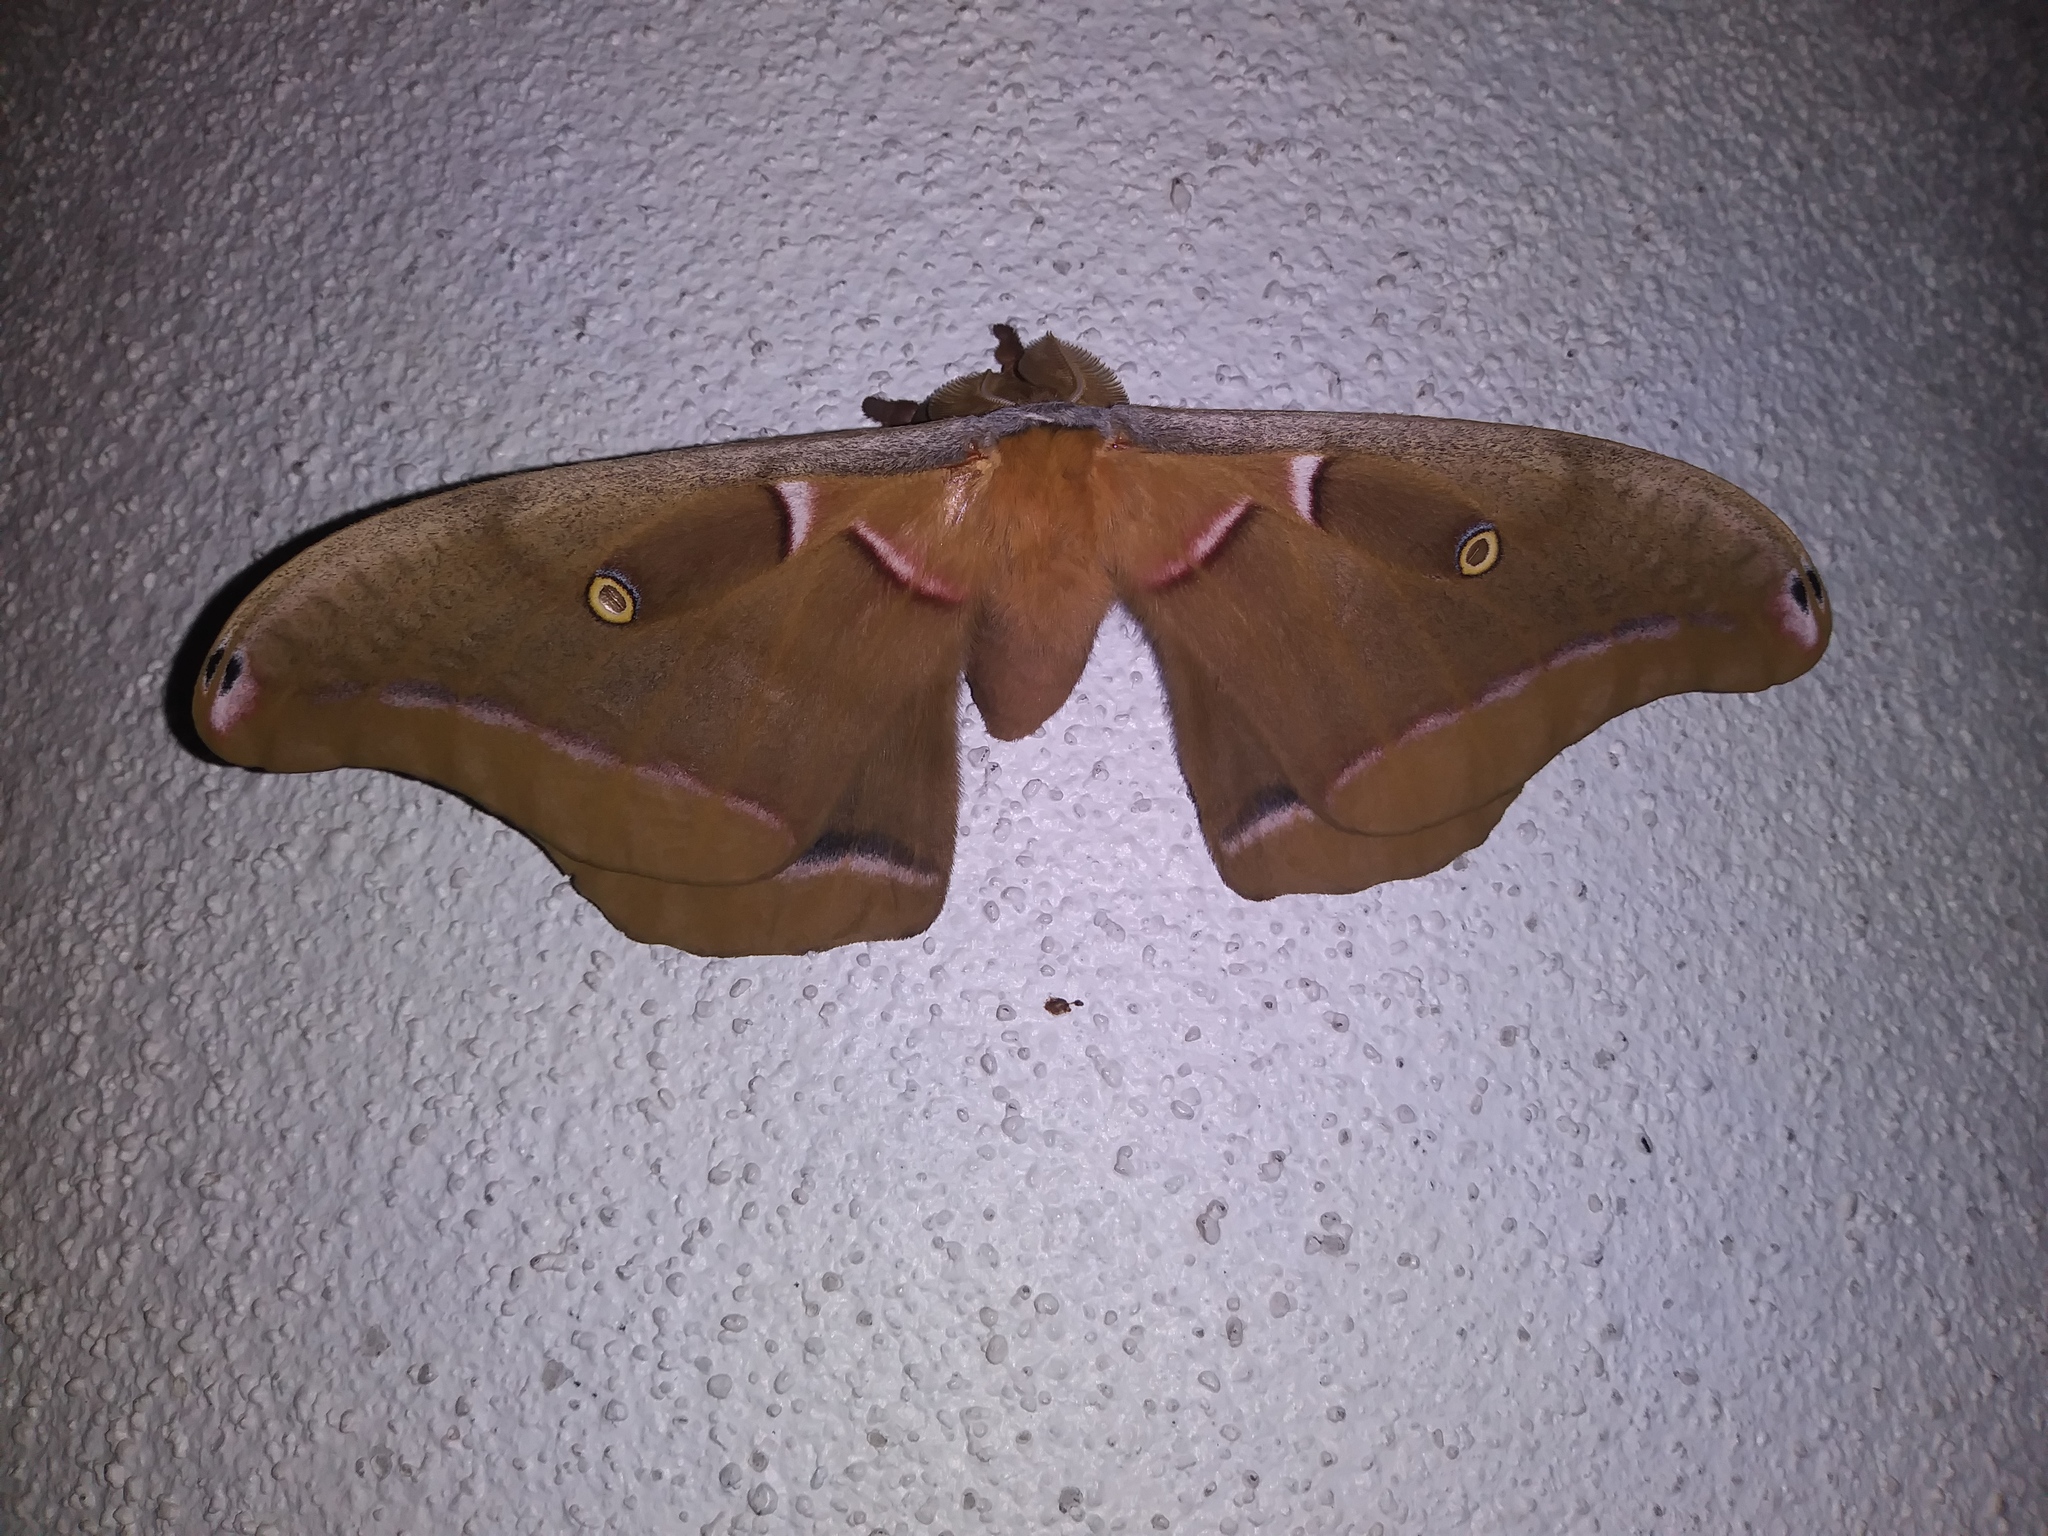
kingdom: Animalia
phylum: Arthropoda
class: Insecta
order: Lepidoptera
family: Saturniidae
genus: Antheraea
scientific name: Antheraea polyphemus
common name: Polyphemus moth
